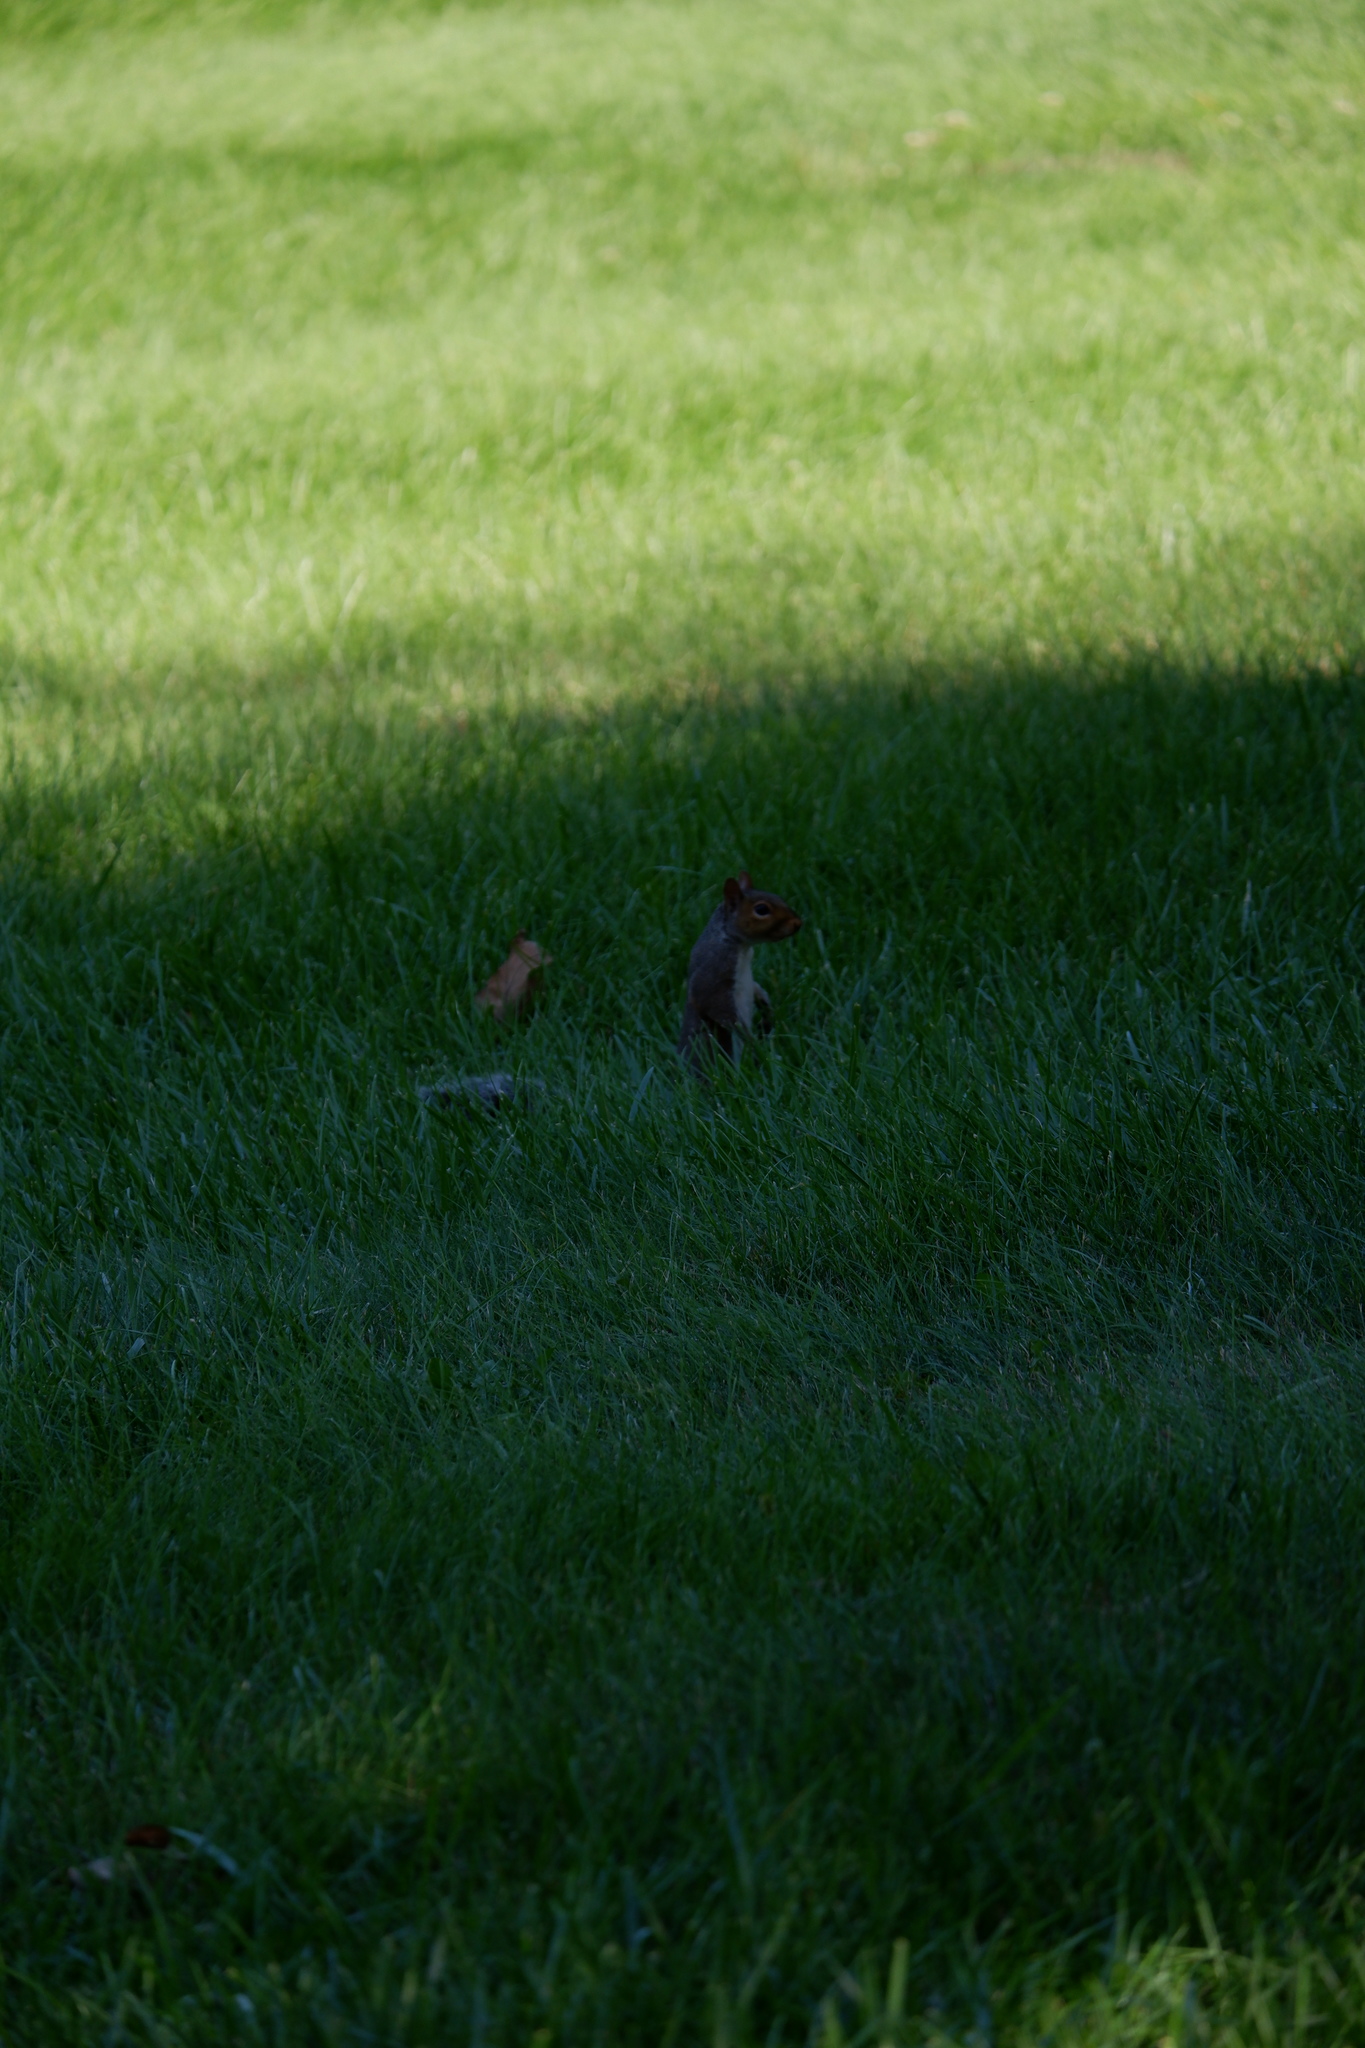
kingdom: Animalia
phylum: Chordata
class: Mammalia
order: Rodentia
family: Sciuridae
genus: Sciurus
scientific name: Sciurus carolinensis
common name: Eastern gray squirrel
